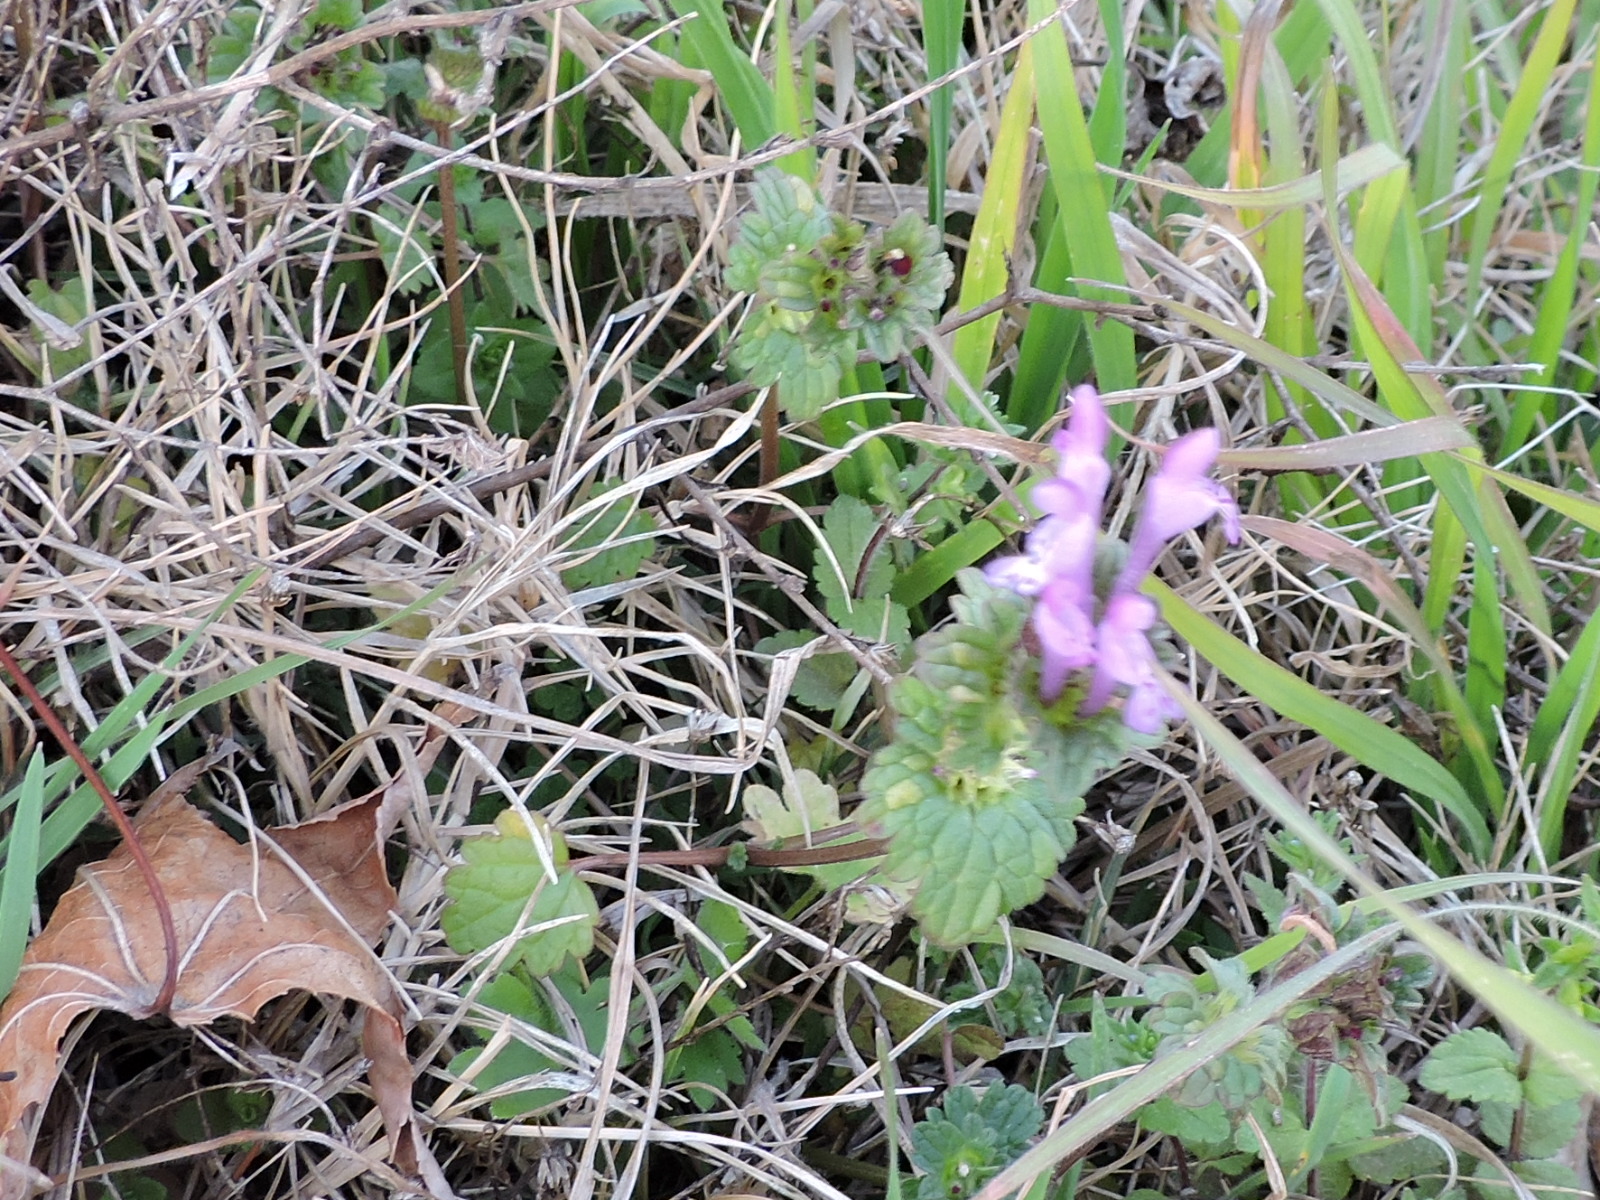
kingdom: Plantae
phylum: Tracheophyta
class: Magnoliopsida
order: Lamiales
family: Lamiaceae
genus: Lamium
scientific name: Lamium amplexicaule
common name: Henbit dead-nettle
